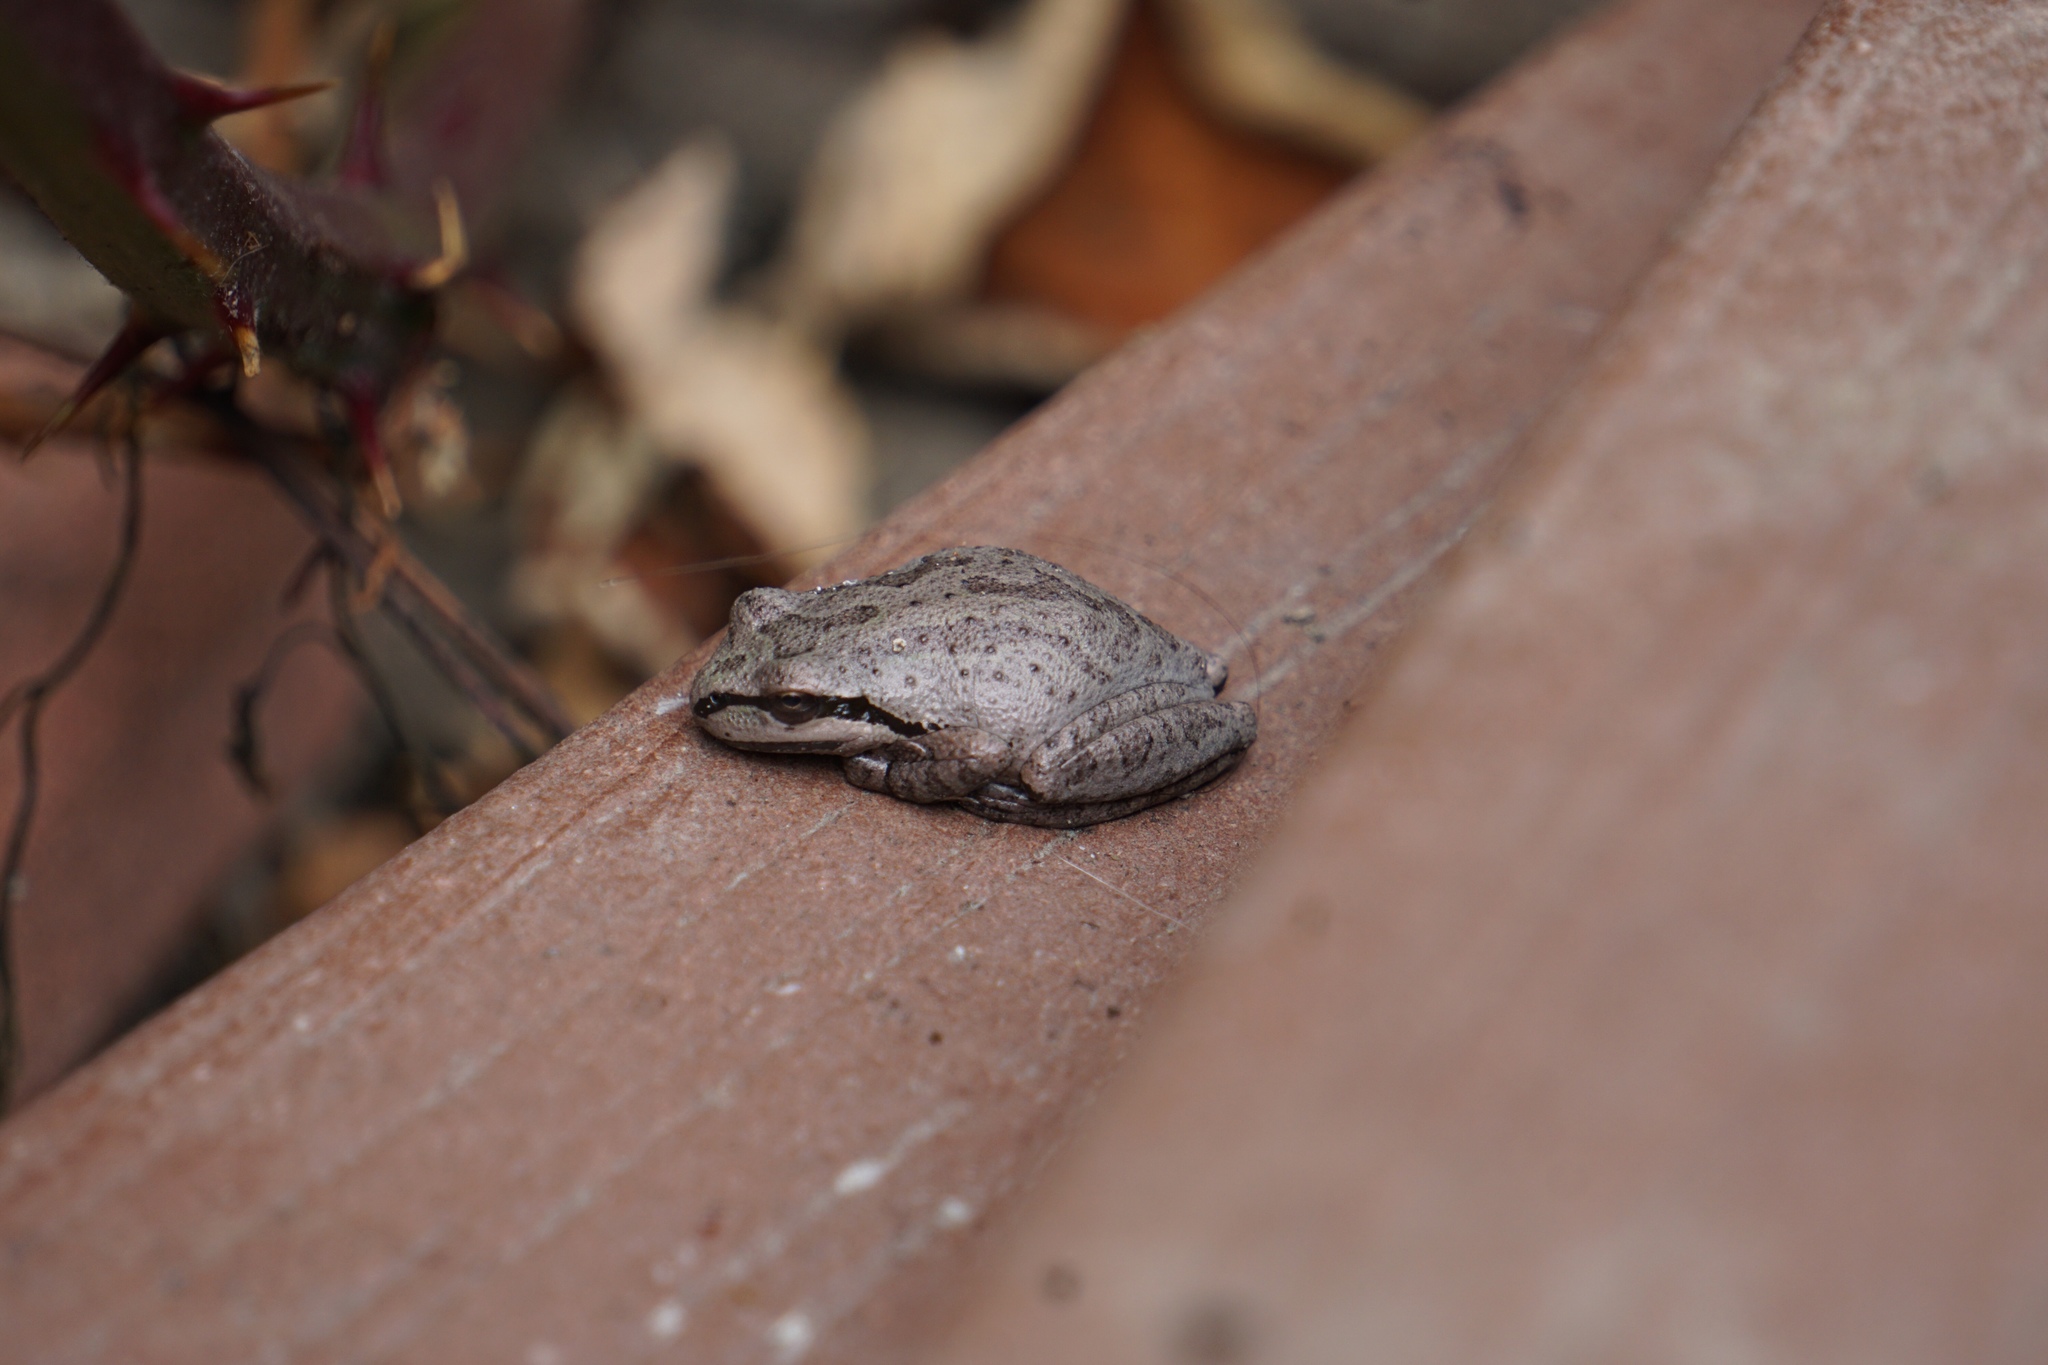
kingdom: Animalia
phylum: Chordata
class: Amphibia
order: Anura
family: Hylidae
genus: Pseudacris
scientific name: Pseudacris regilla
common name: Pacific chorus frog
